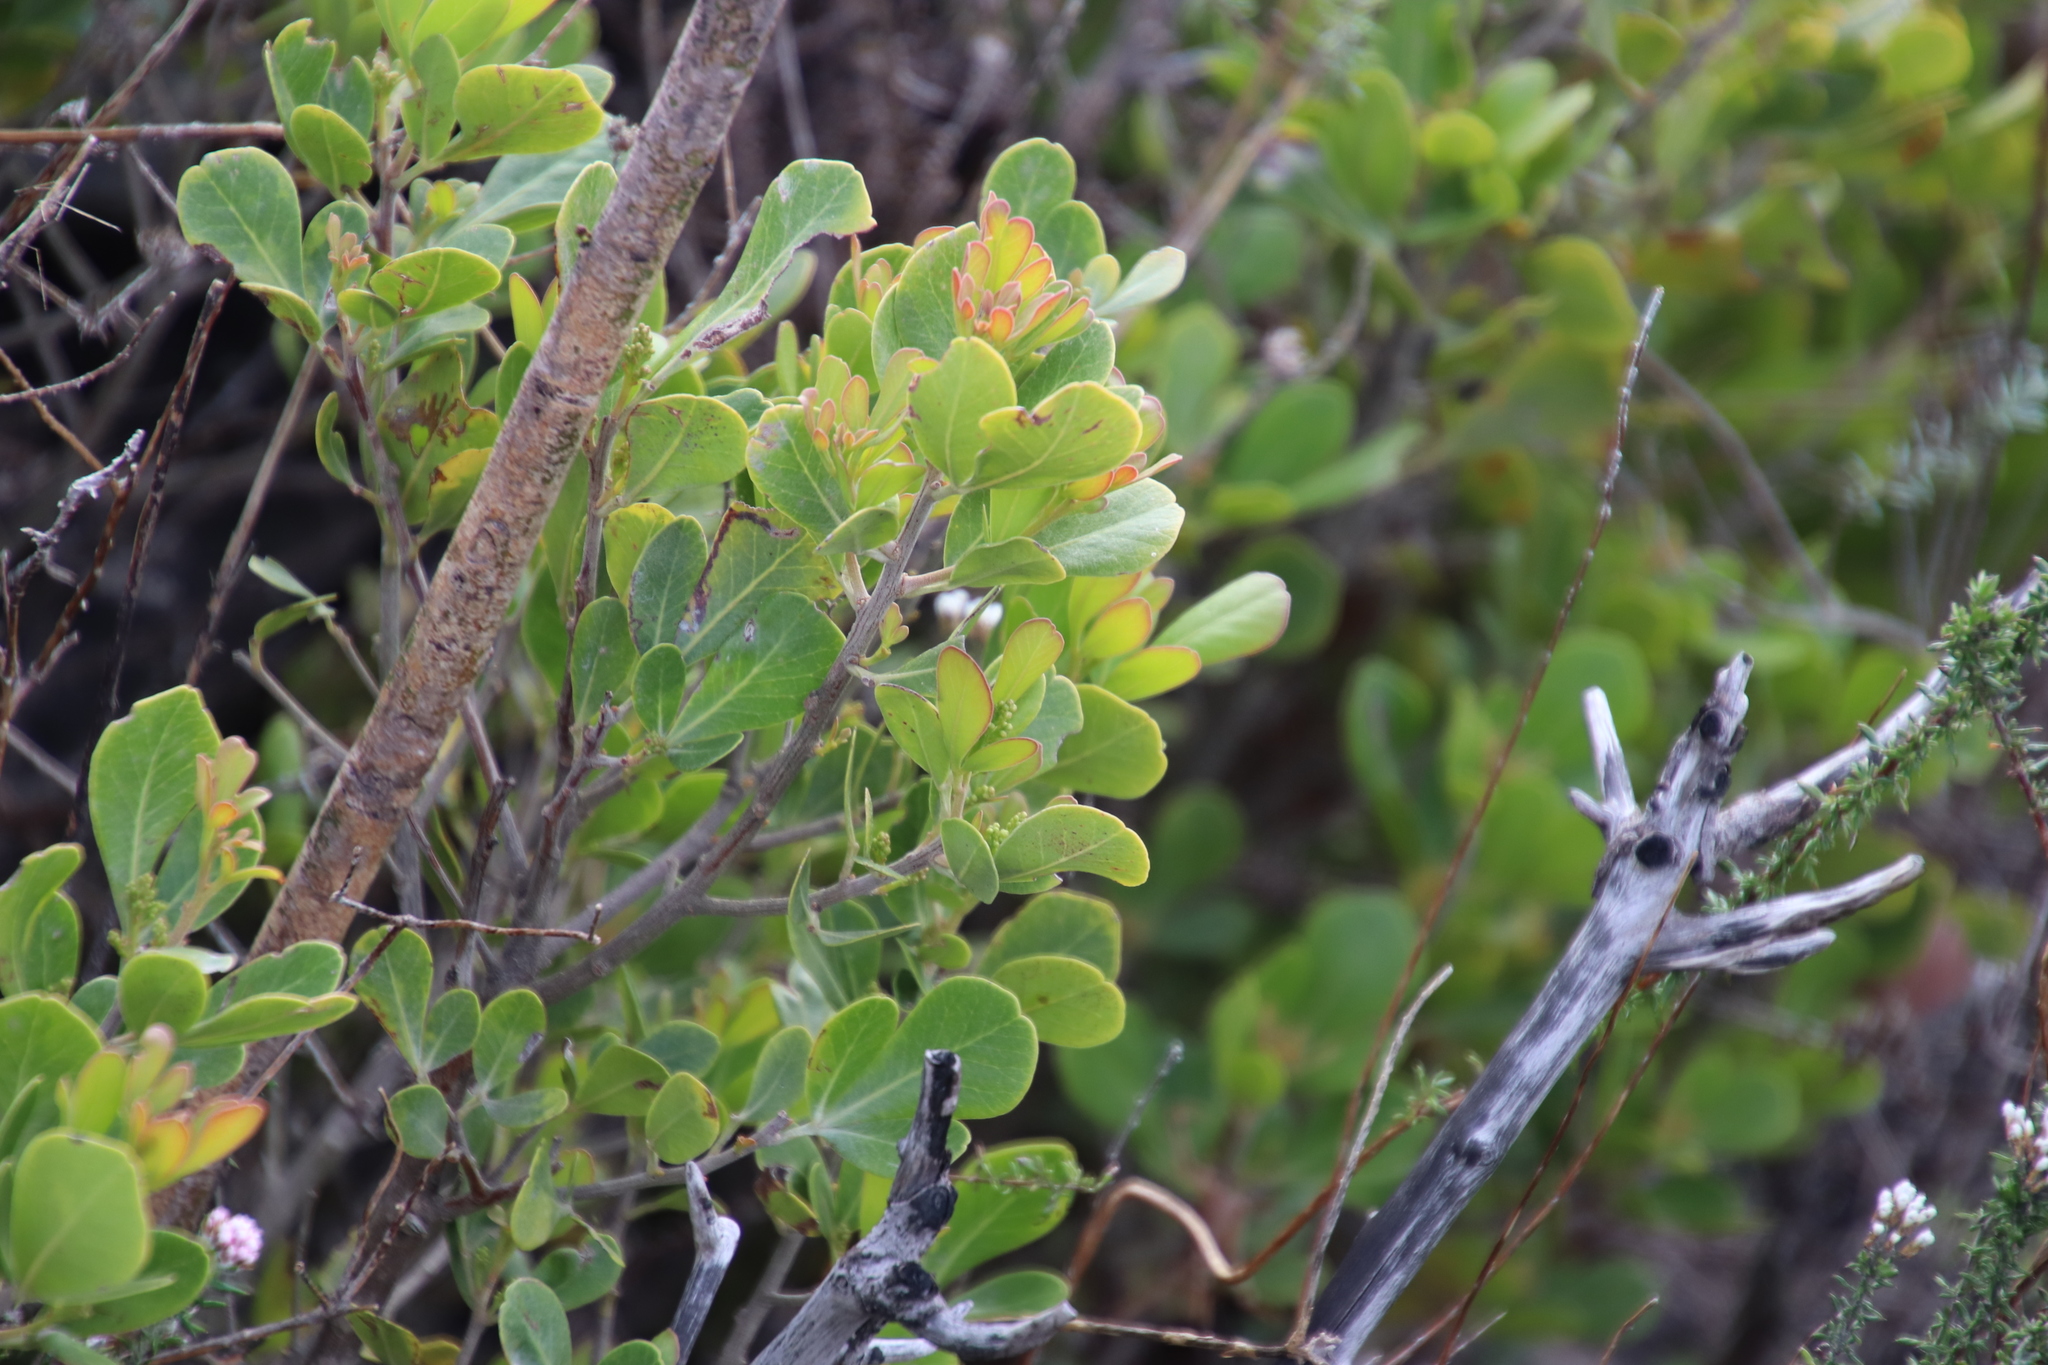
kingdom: Plantae
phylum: Tracheophyta
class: Magnoliopsida
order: Sapindales
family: Anacardiaceae
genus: Searsia
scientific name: Searsia lucida
